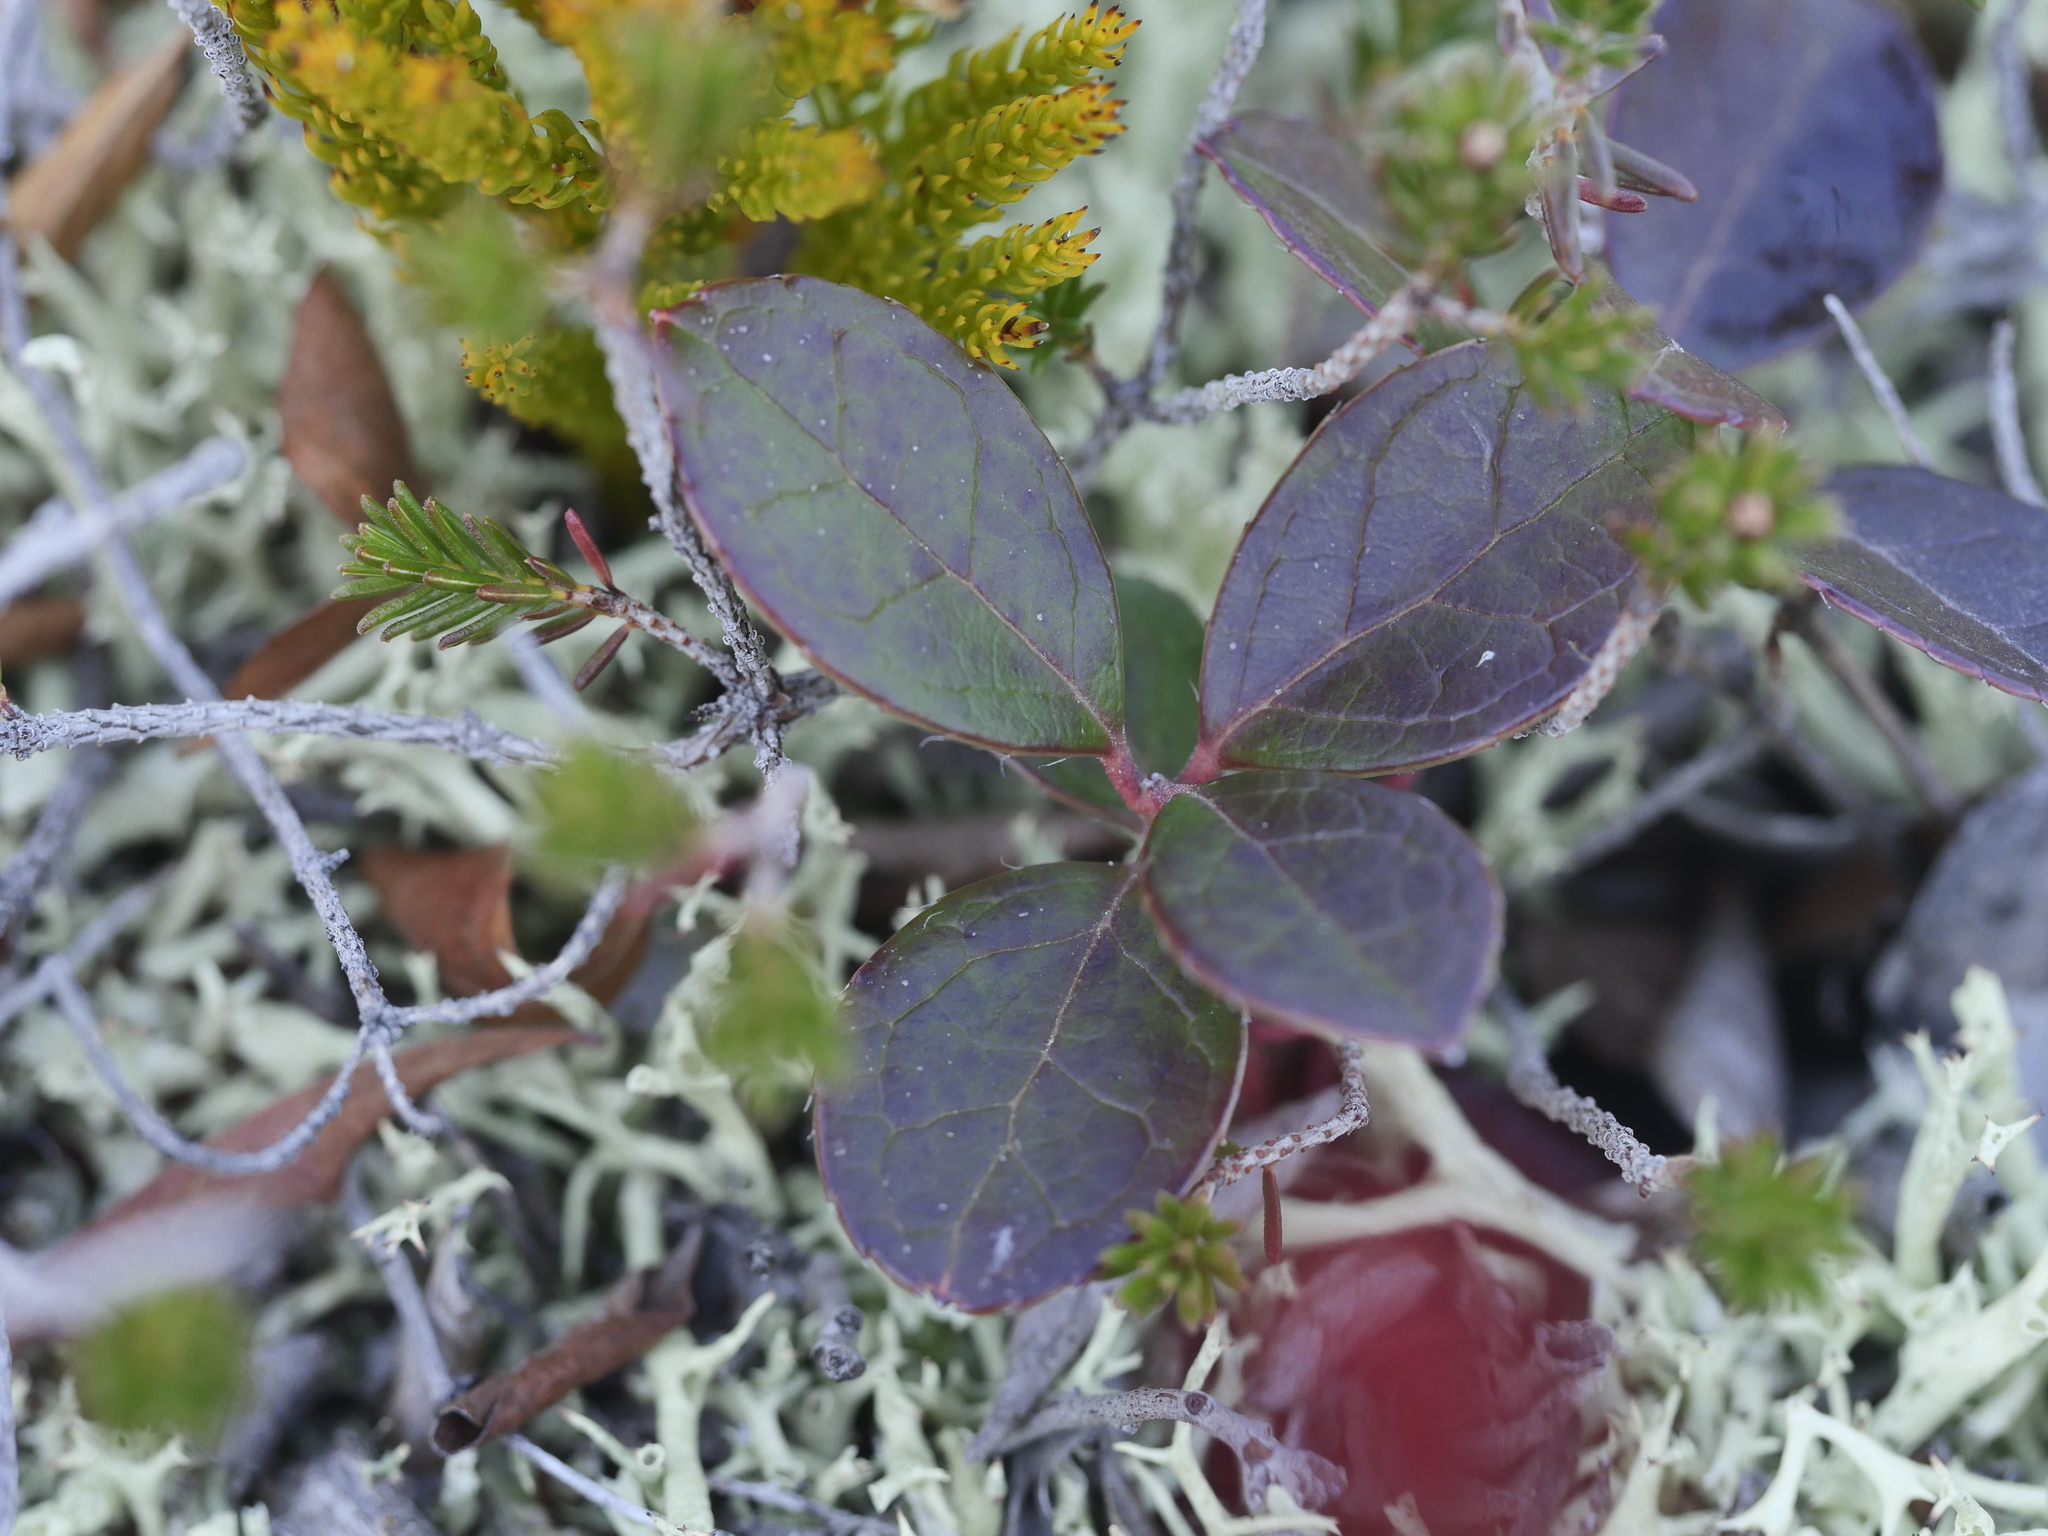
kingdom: Plantae
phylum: Tracheophyta
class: Magnoliopsida
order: Ericales
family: Ericaceae
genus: Gaultheria
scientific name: Gaultheria procumbens
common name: Checkerberry
